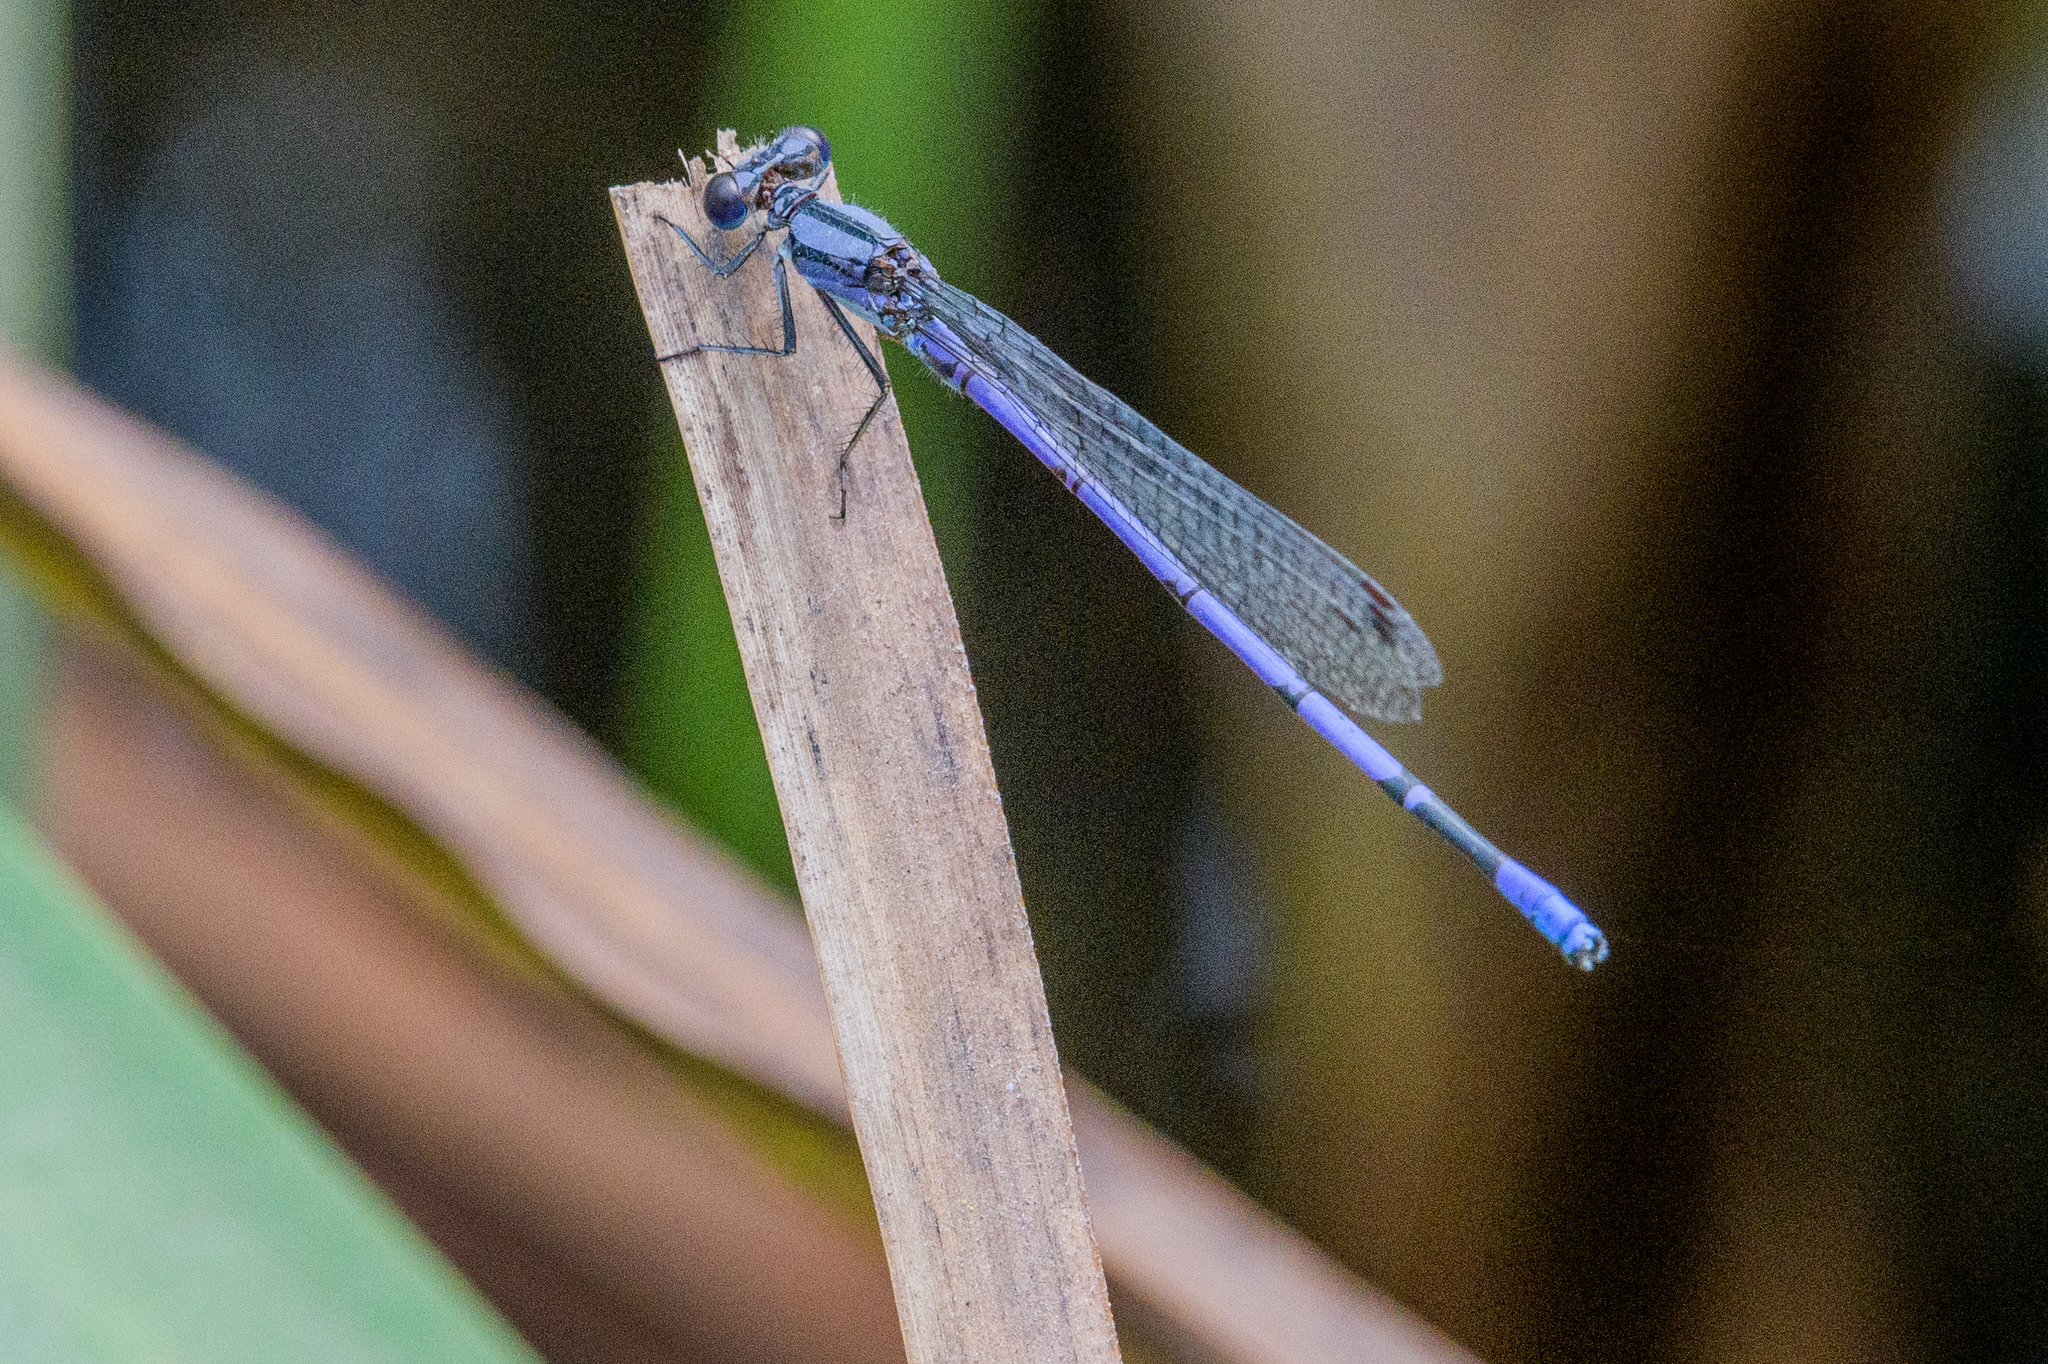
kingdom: Animalia
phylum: Arthropoda
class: Insecta
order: Odonata
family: Coenagrionidae
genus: Argia
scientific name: Argia fumipennis
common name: Variable dancer
